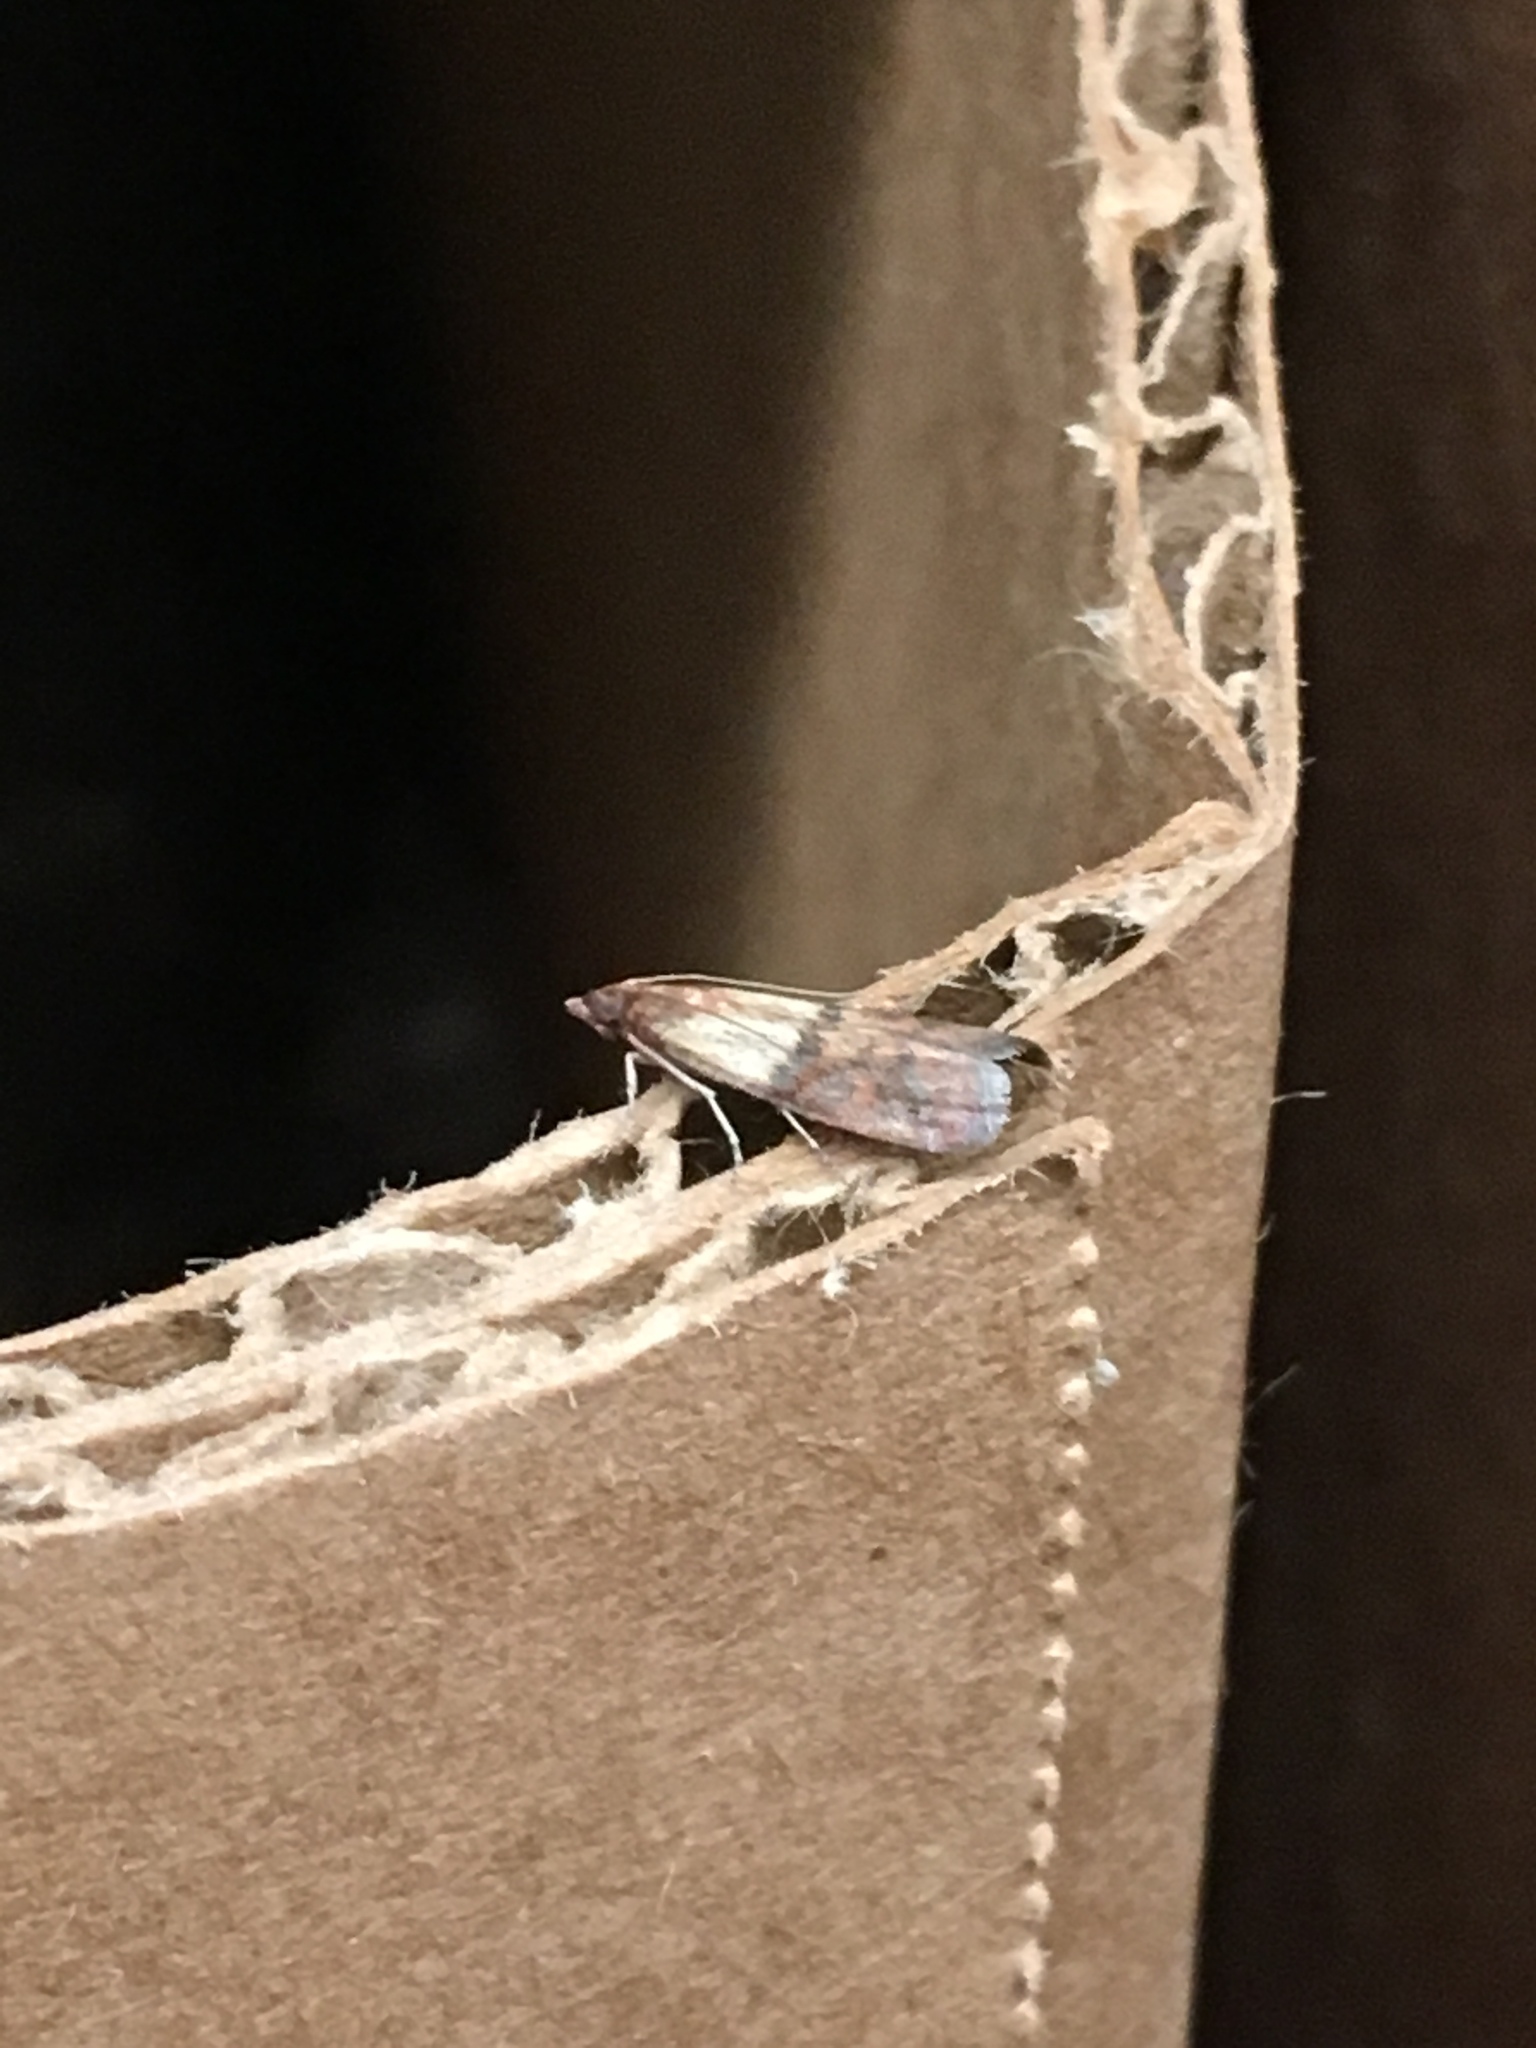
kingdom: Animalia
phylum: Arthropoda
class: Insecta
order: Lepidoptera
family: Pyralidae
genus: Plodia
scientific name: Plodia interpunctella
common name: Indian meal moth
